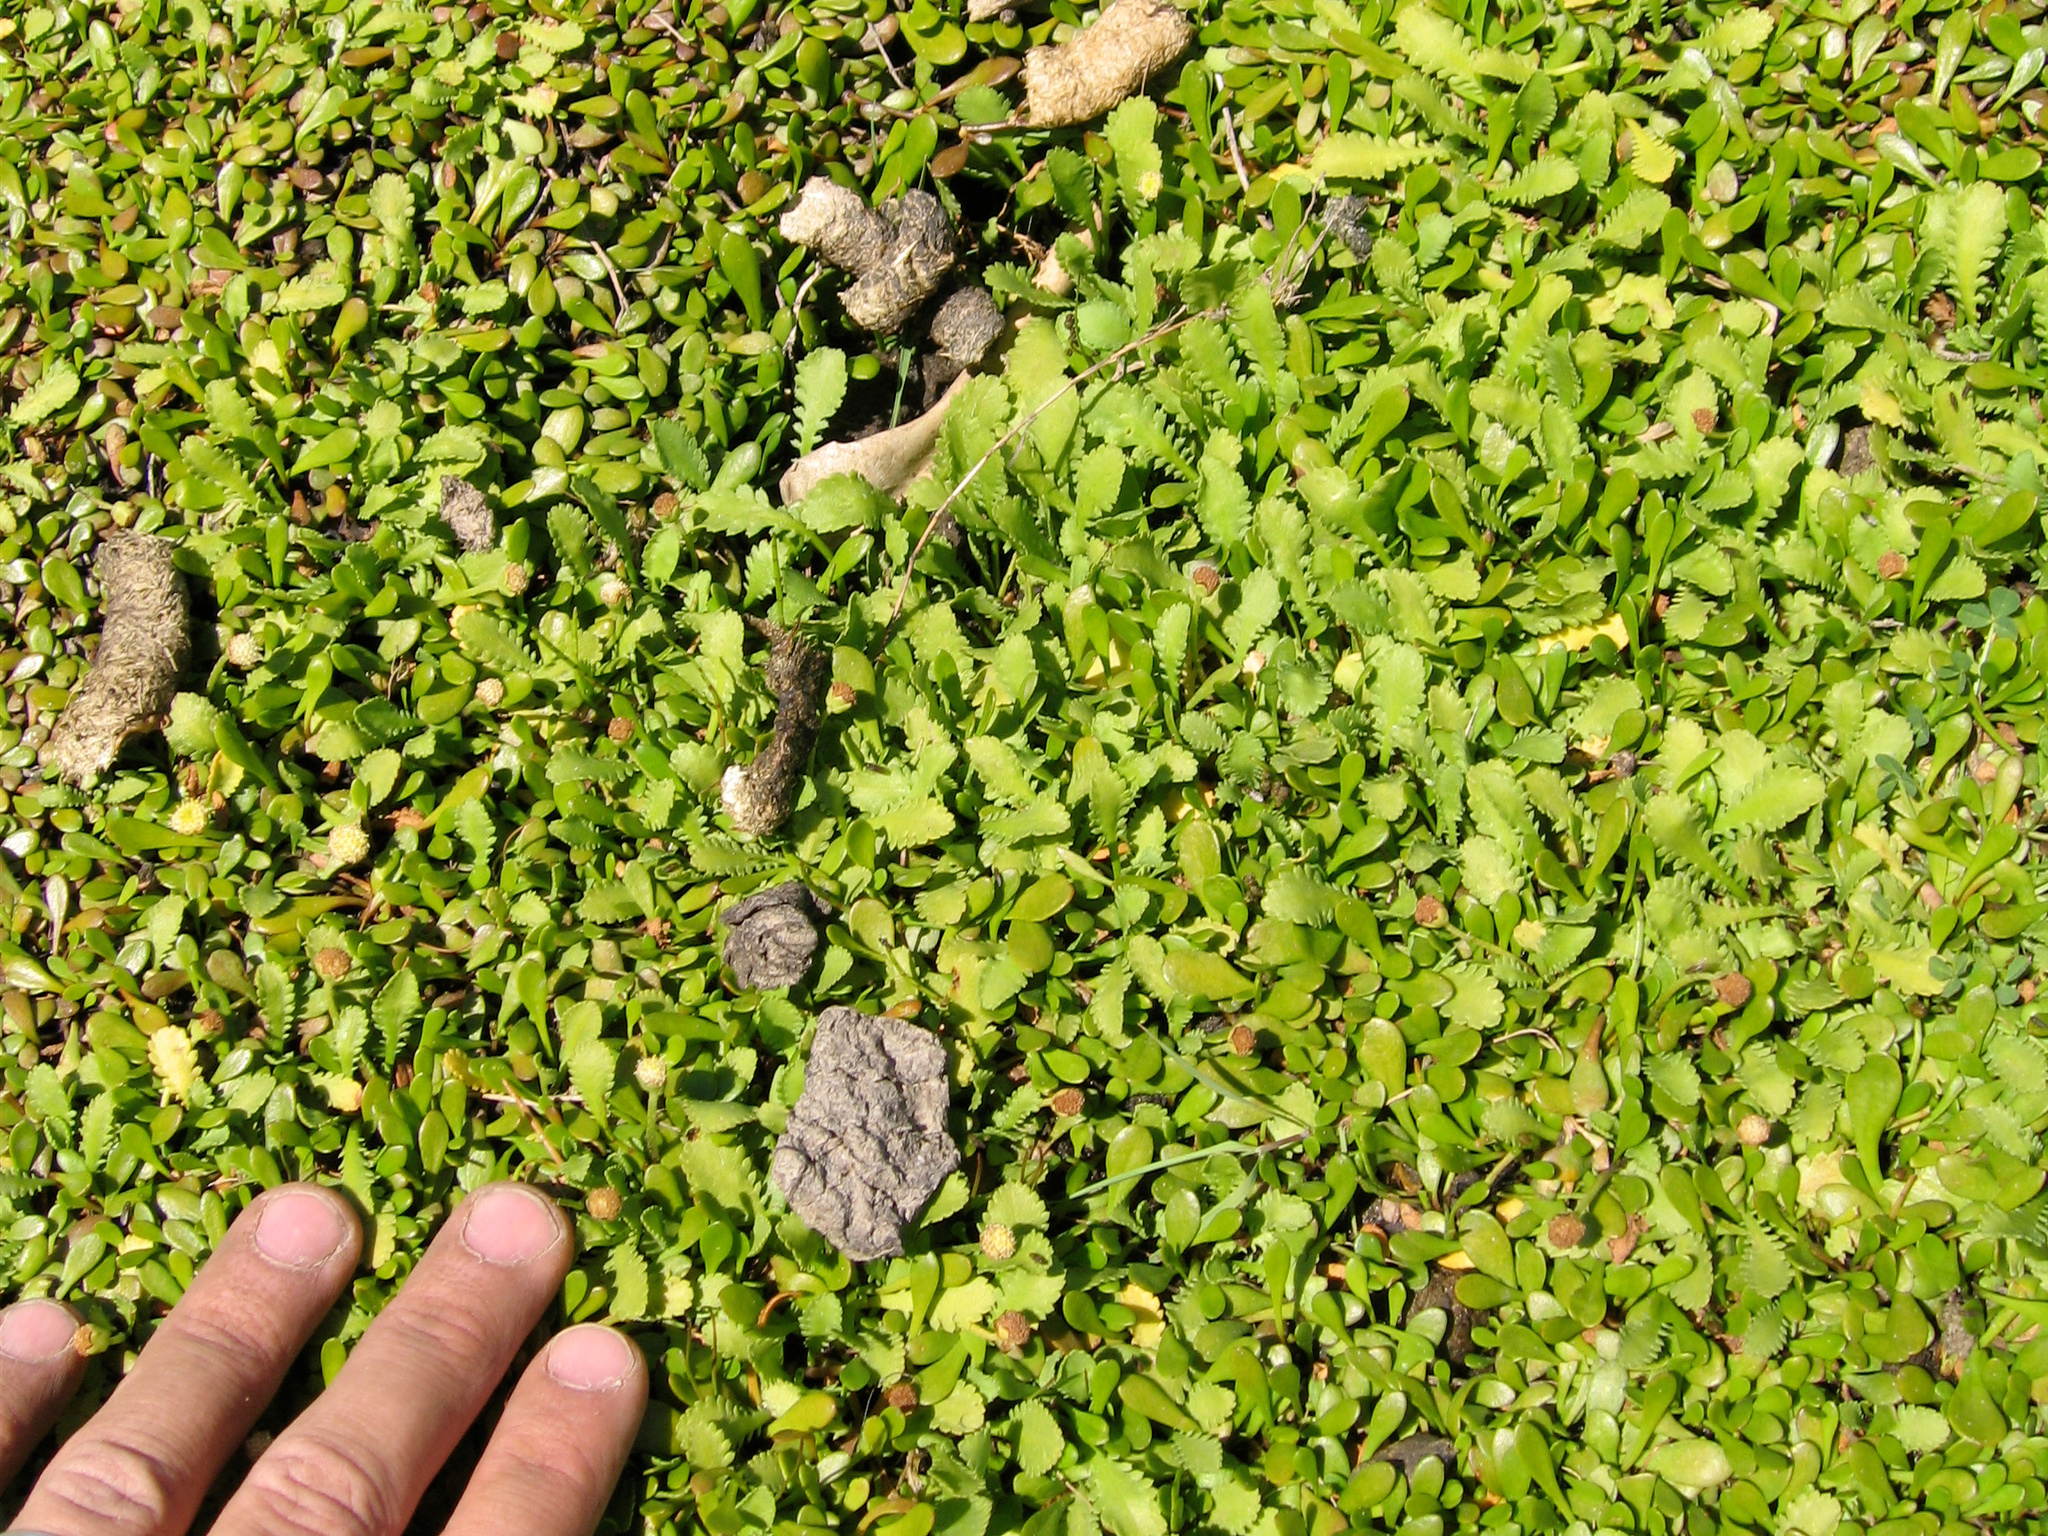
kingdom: Plantae
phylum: Tracheophyta
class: Magnoliopsida
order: Asterales
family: Asteraceae
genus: Leptinella
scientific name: Leptinella dioica
